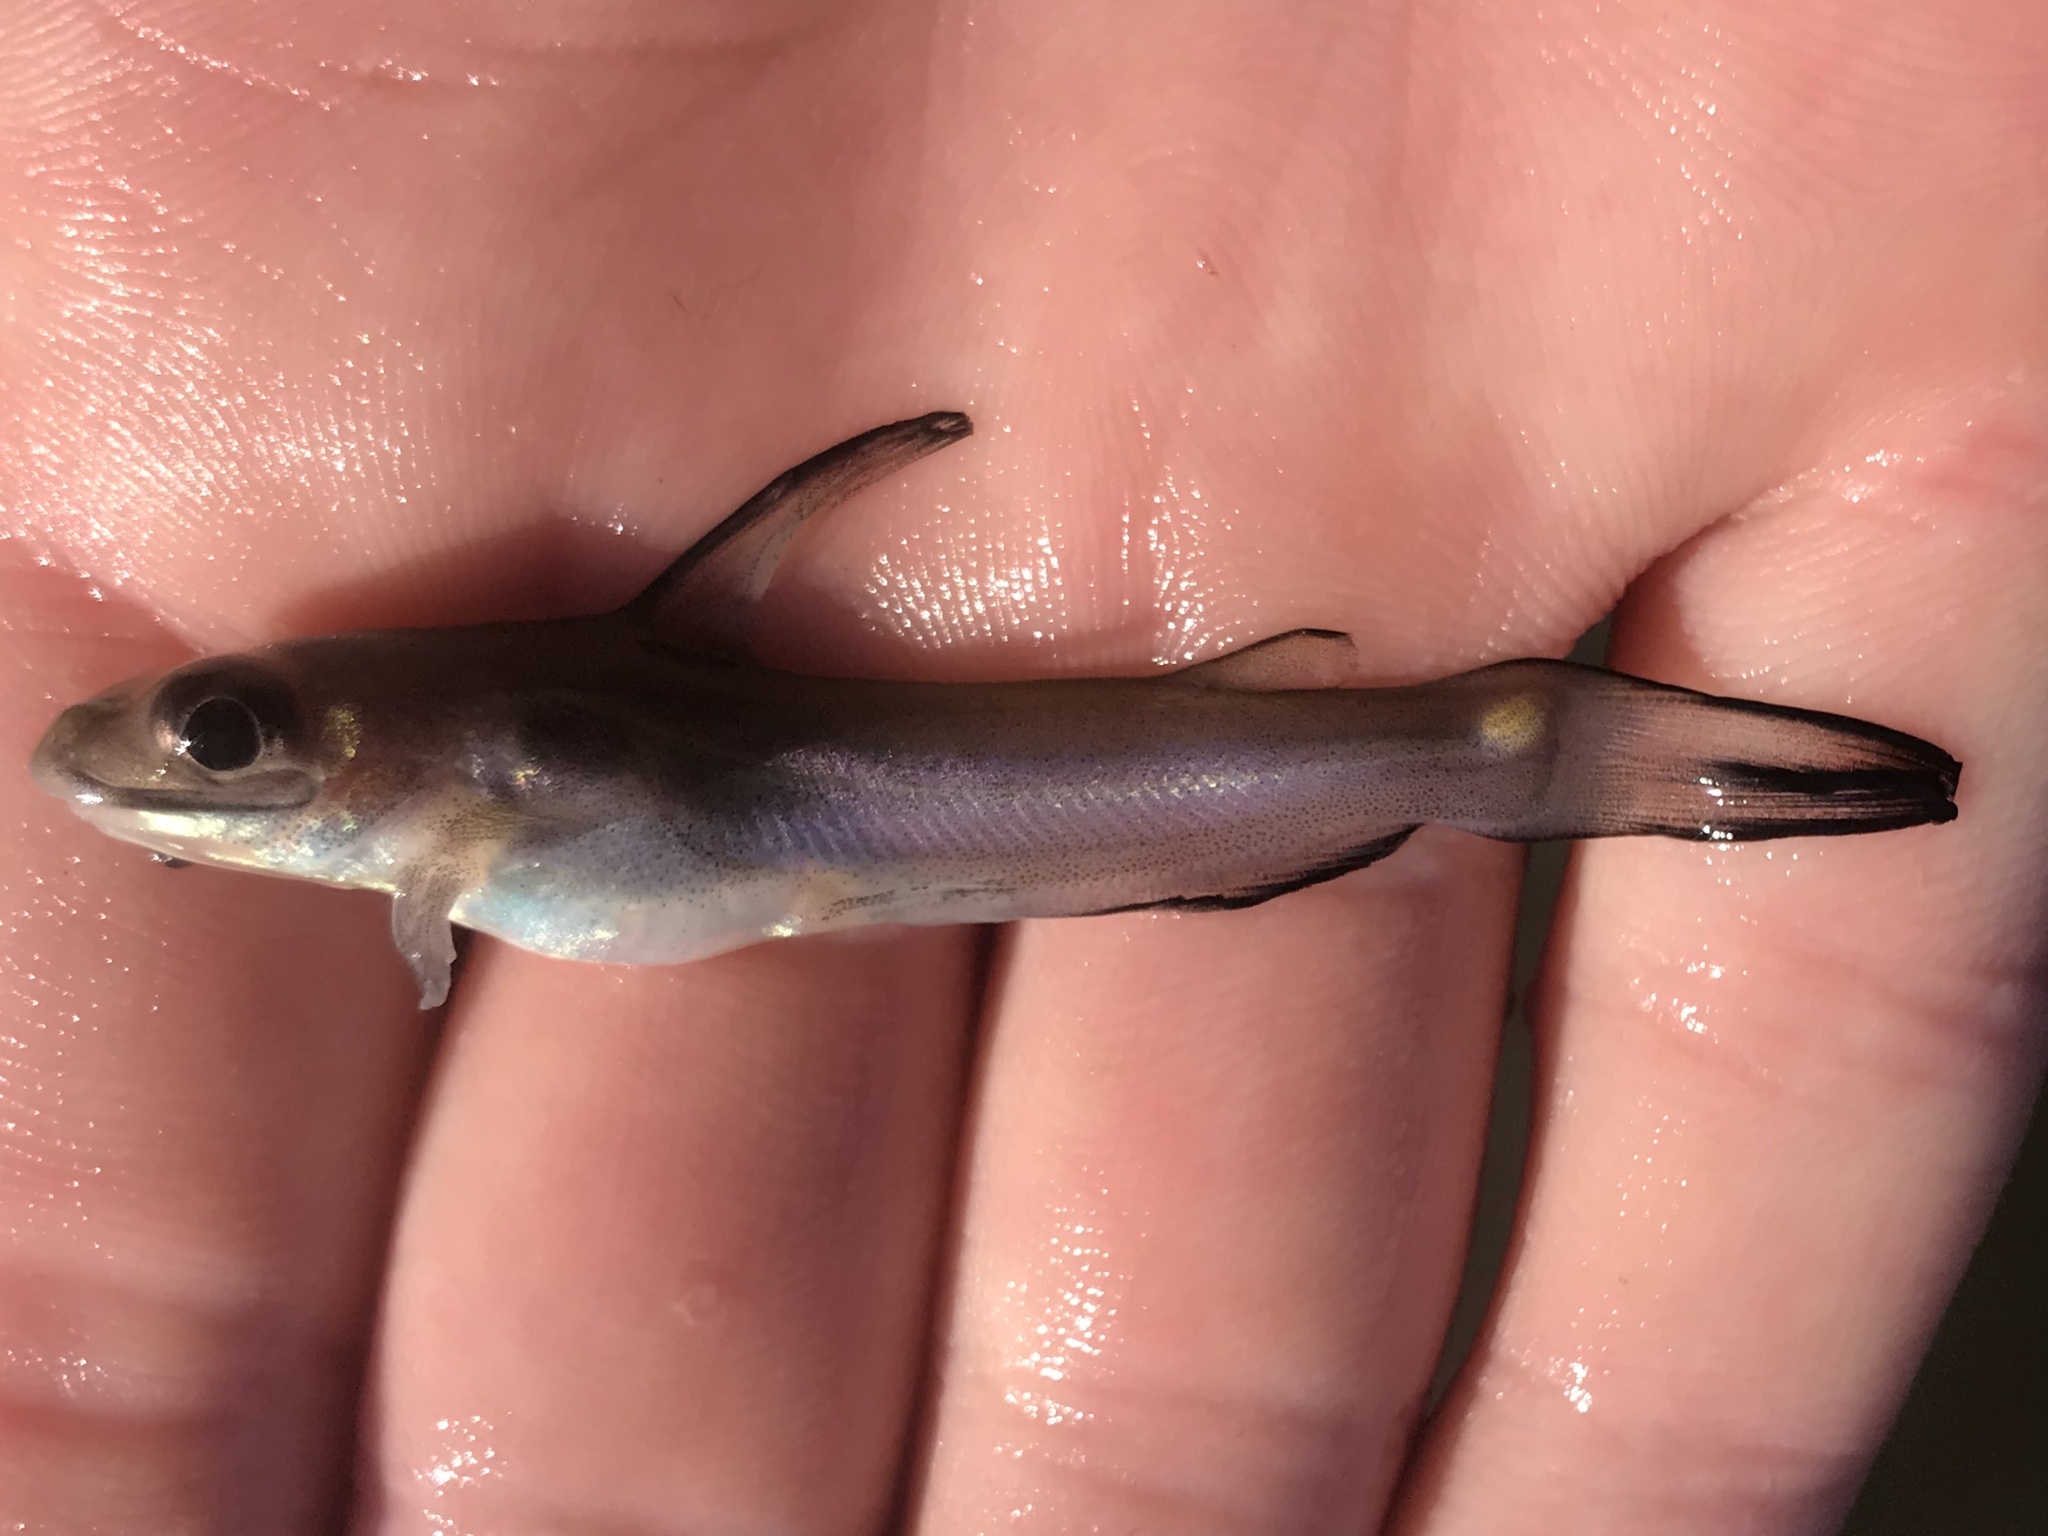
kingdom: Animalia
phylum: Chordata
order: Siluriformes
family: Ictaluridae
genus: Ictalurus
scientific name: Ictalurus punctatus
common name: Channel catfish
